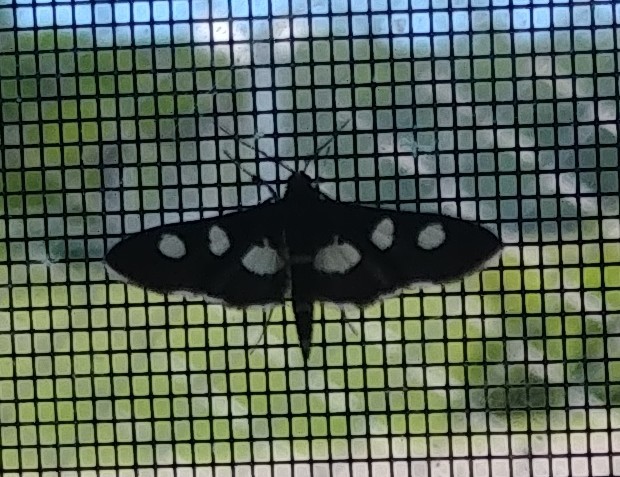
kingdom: Animalia
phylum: Arthropoda
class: Insecta
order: Lepidoptera
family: Crambidae
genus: Desmia
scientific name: Desmia
